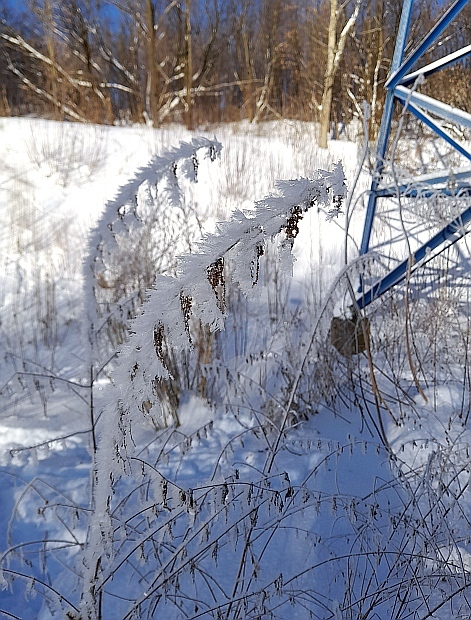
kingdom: Plantae
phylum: Tracheophyta
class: Magnoliopsida
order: Rosales
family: Urticaceae
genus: Urtica
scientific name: Urtica dioica
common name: Common nettle
